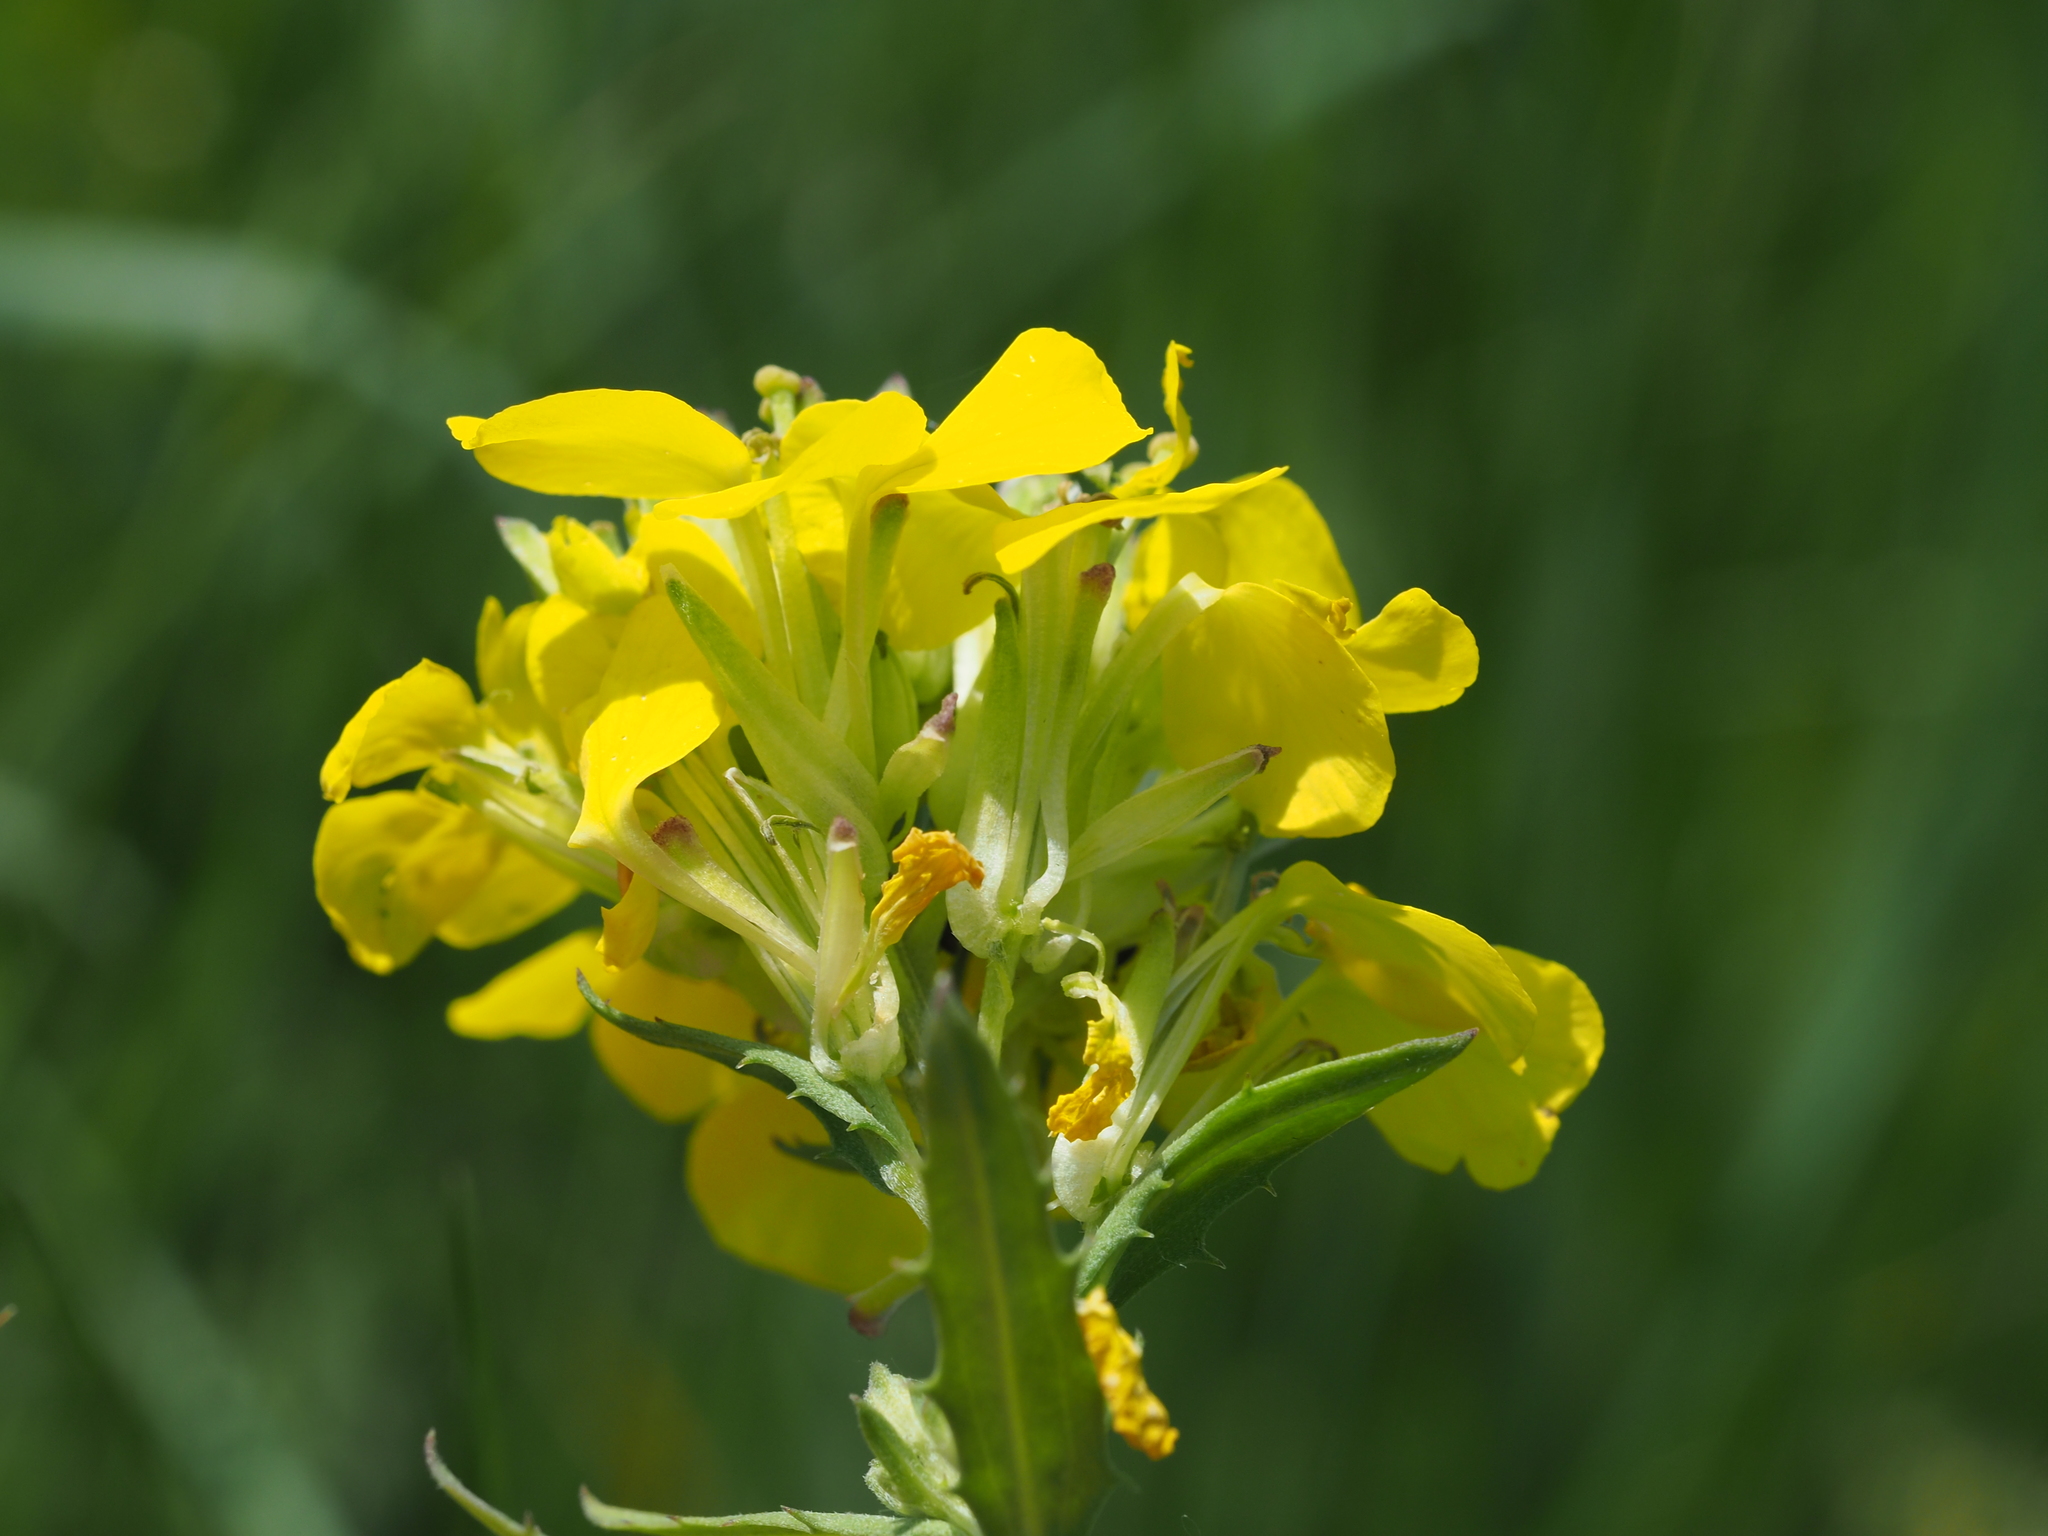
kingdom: Plantae
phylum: Tracheophyta
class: Magnoliopsida
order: Brassicales
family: Brassicaceae
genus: Erysimum
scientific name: Erysimum odoratum
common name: Smelly wallflower
